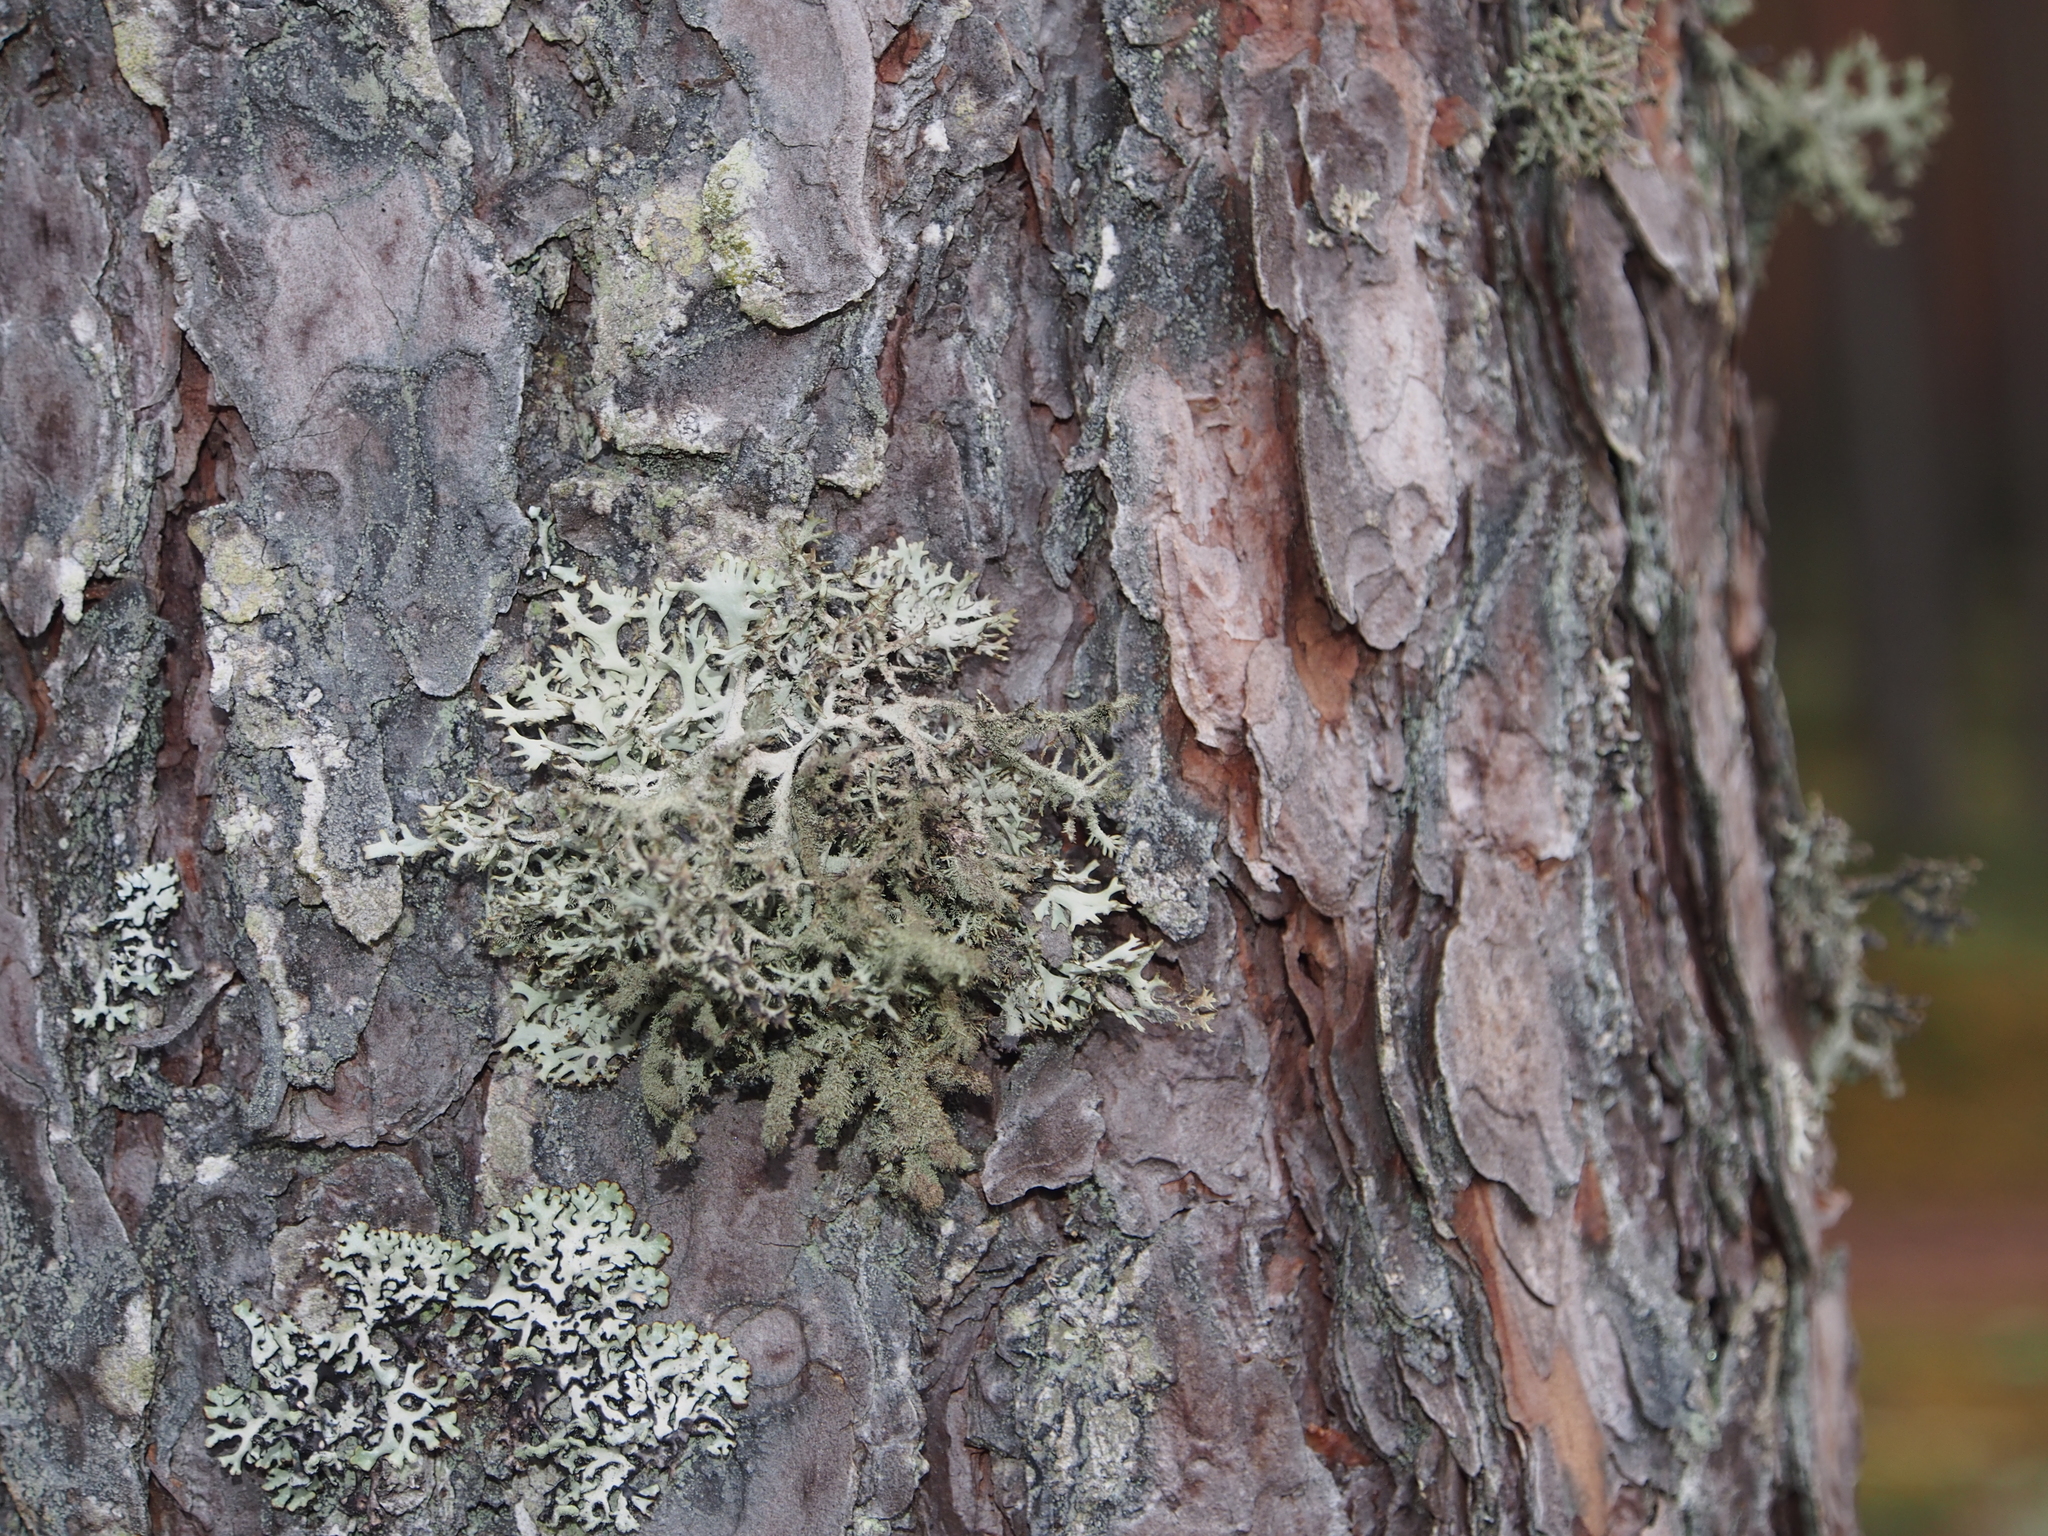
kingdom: Fungi
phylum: Ascomycota
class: Lecanoromycetes
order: Lecanorales
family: Parmeliaceae
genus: Pseudevernia
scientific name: Pseudevernia furfuracea
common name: Tree moss
